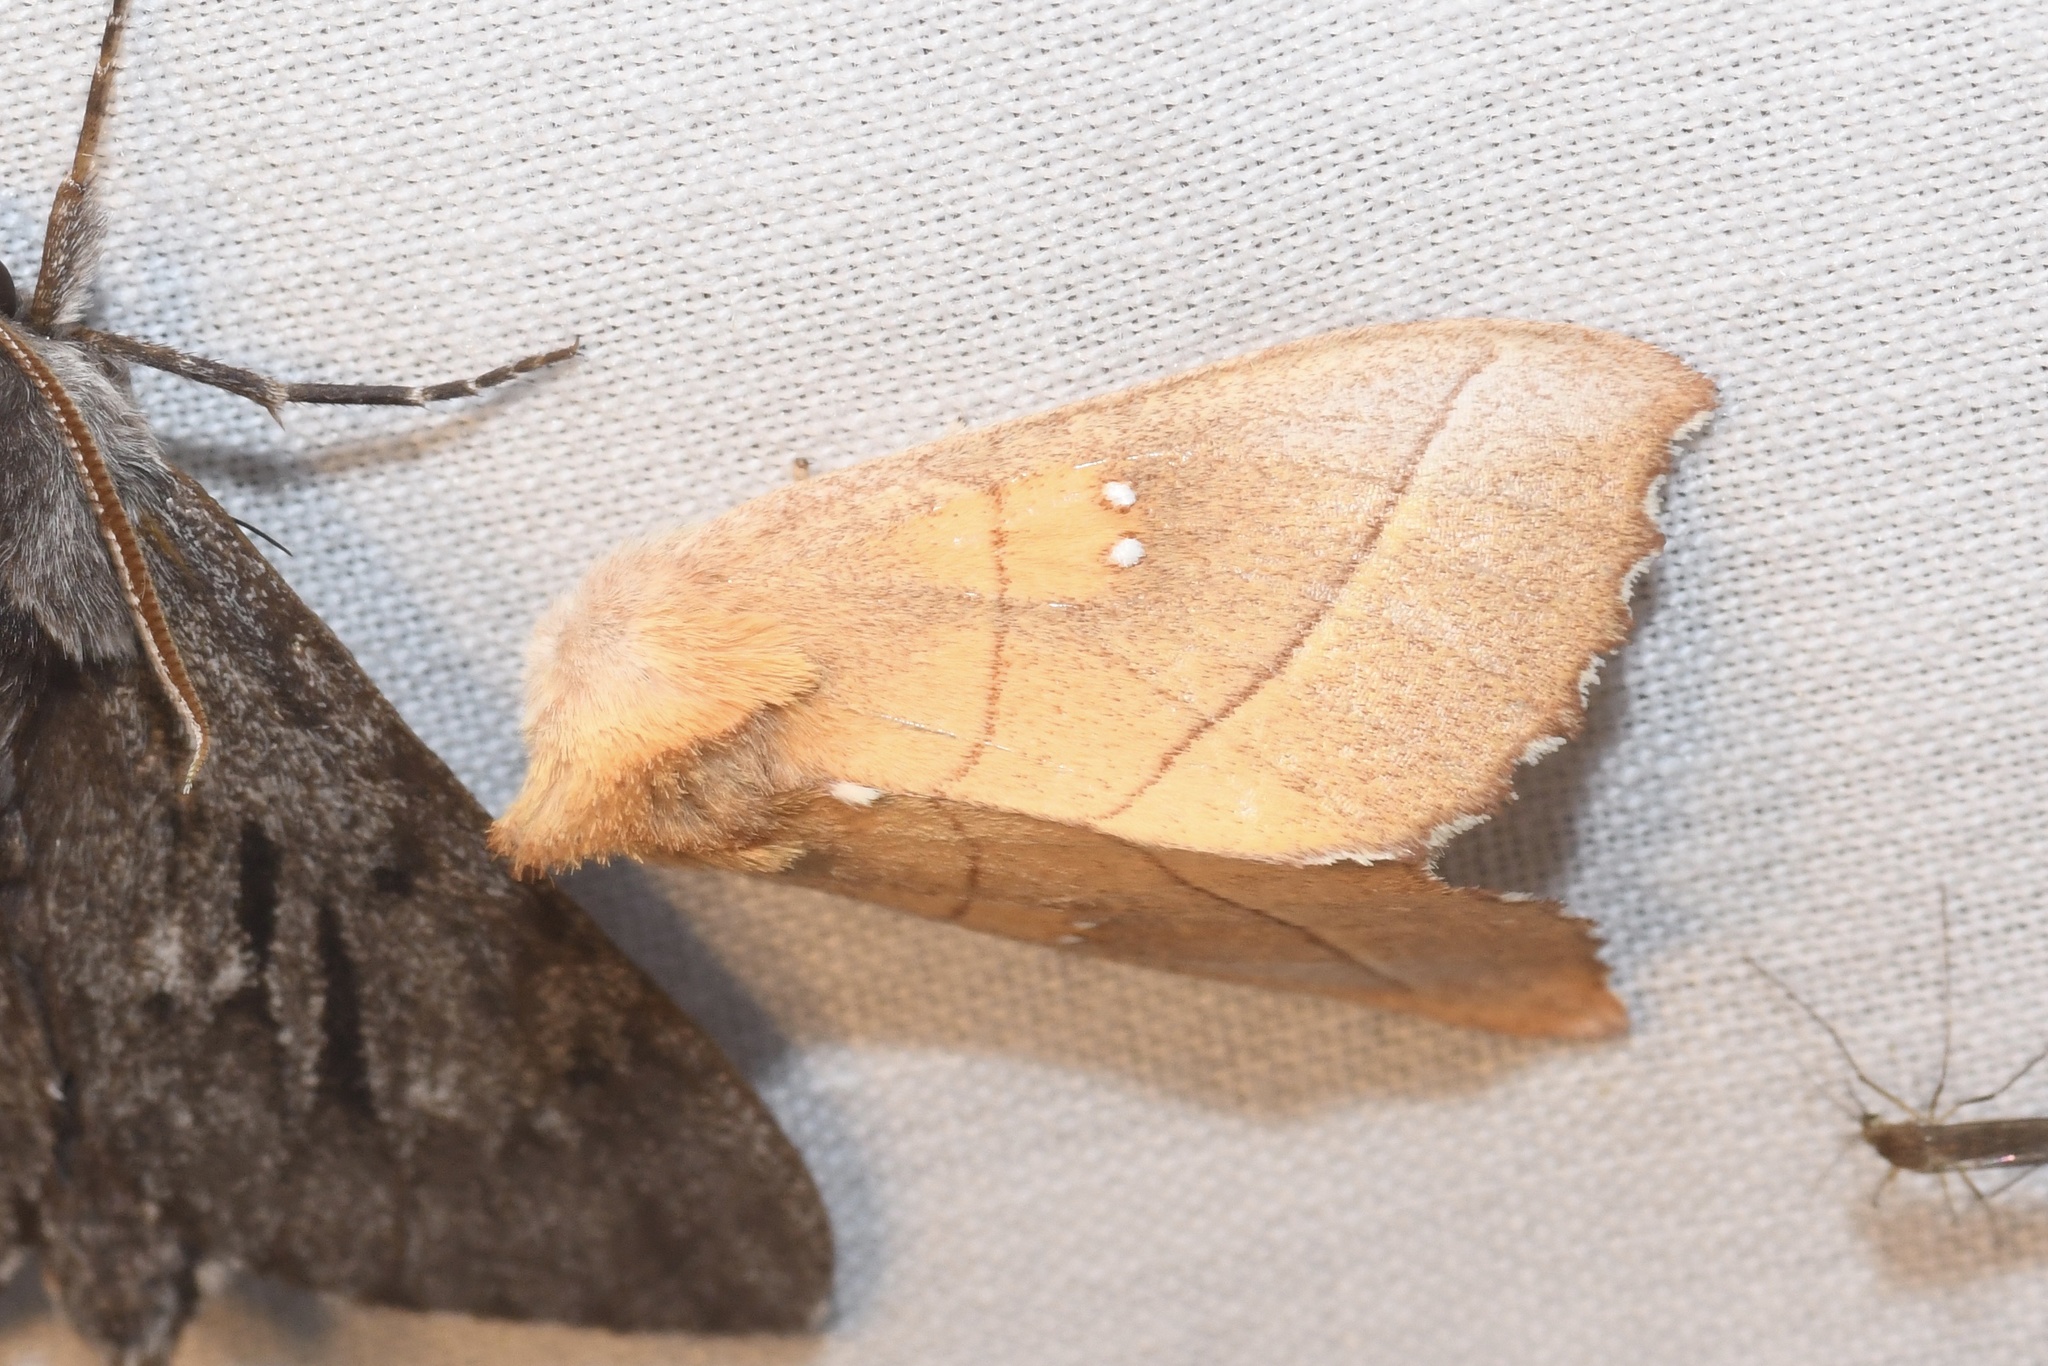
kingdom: Animalia
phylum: Arthropoda
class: Insecta
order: Lepidoptera
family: Notodontidae
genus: Nadata
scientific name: Nadata gibbosa
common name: White-dotted prominent
